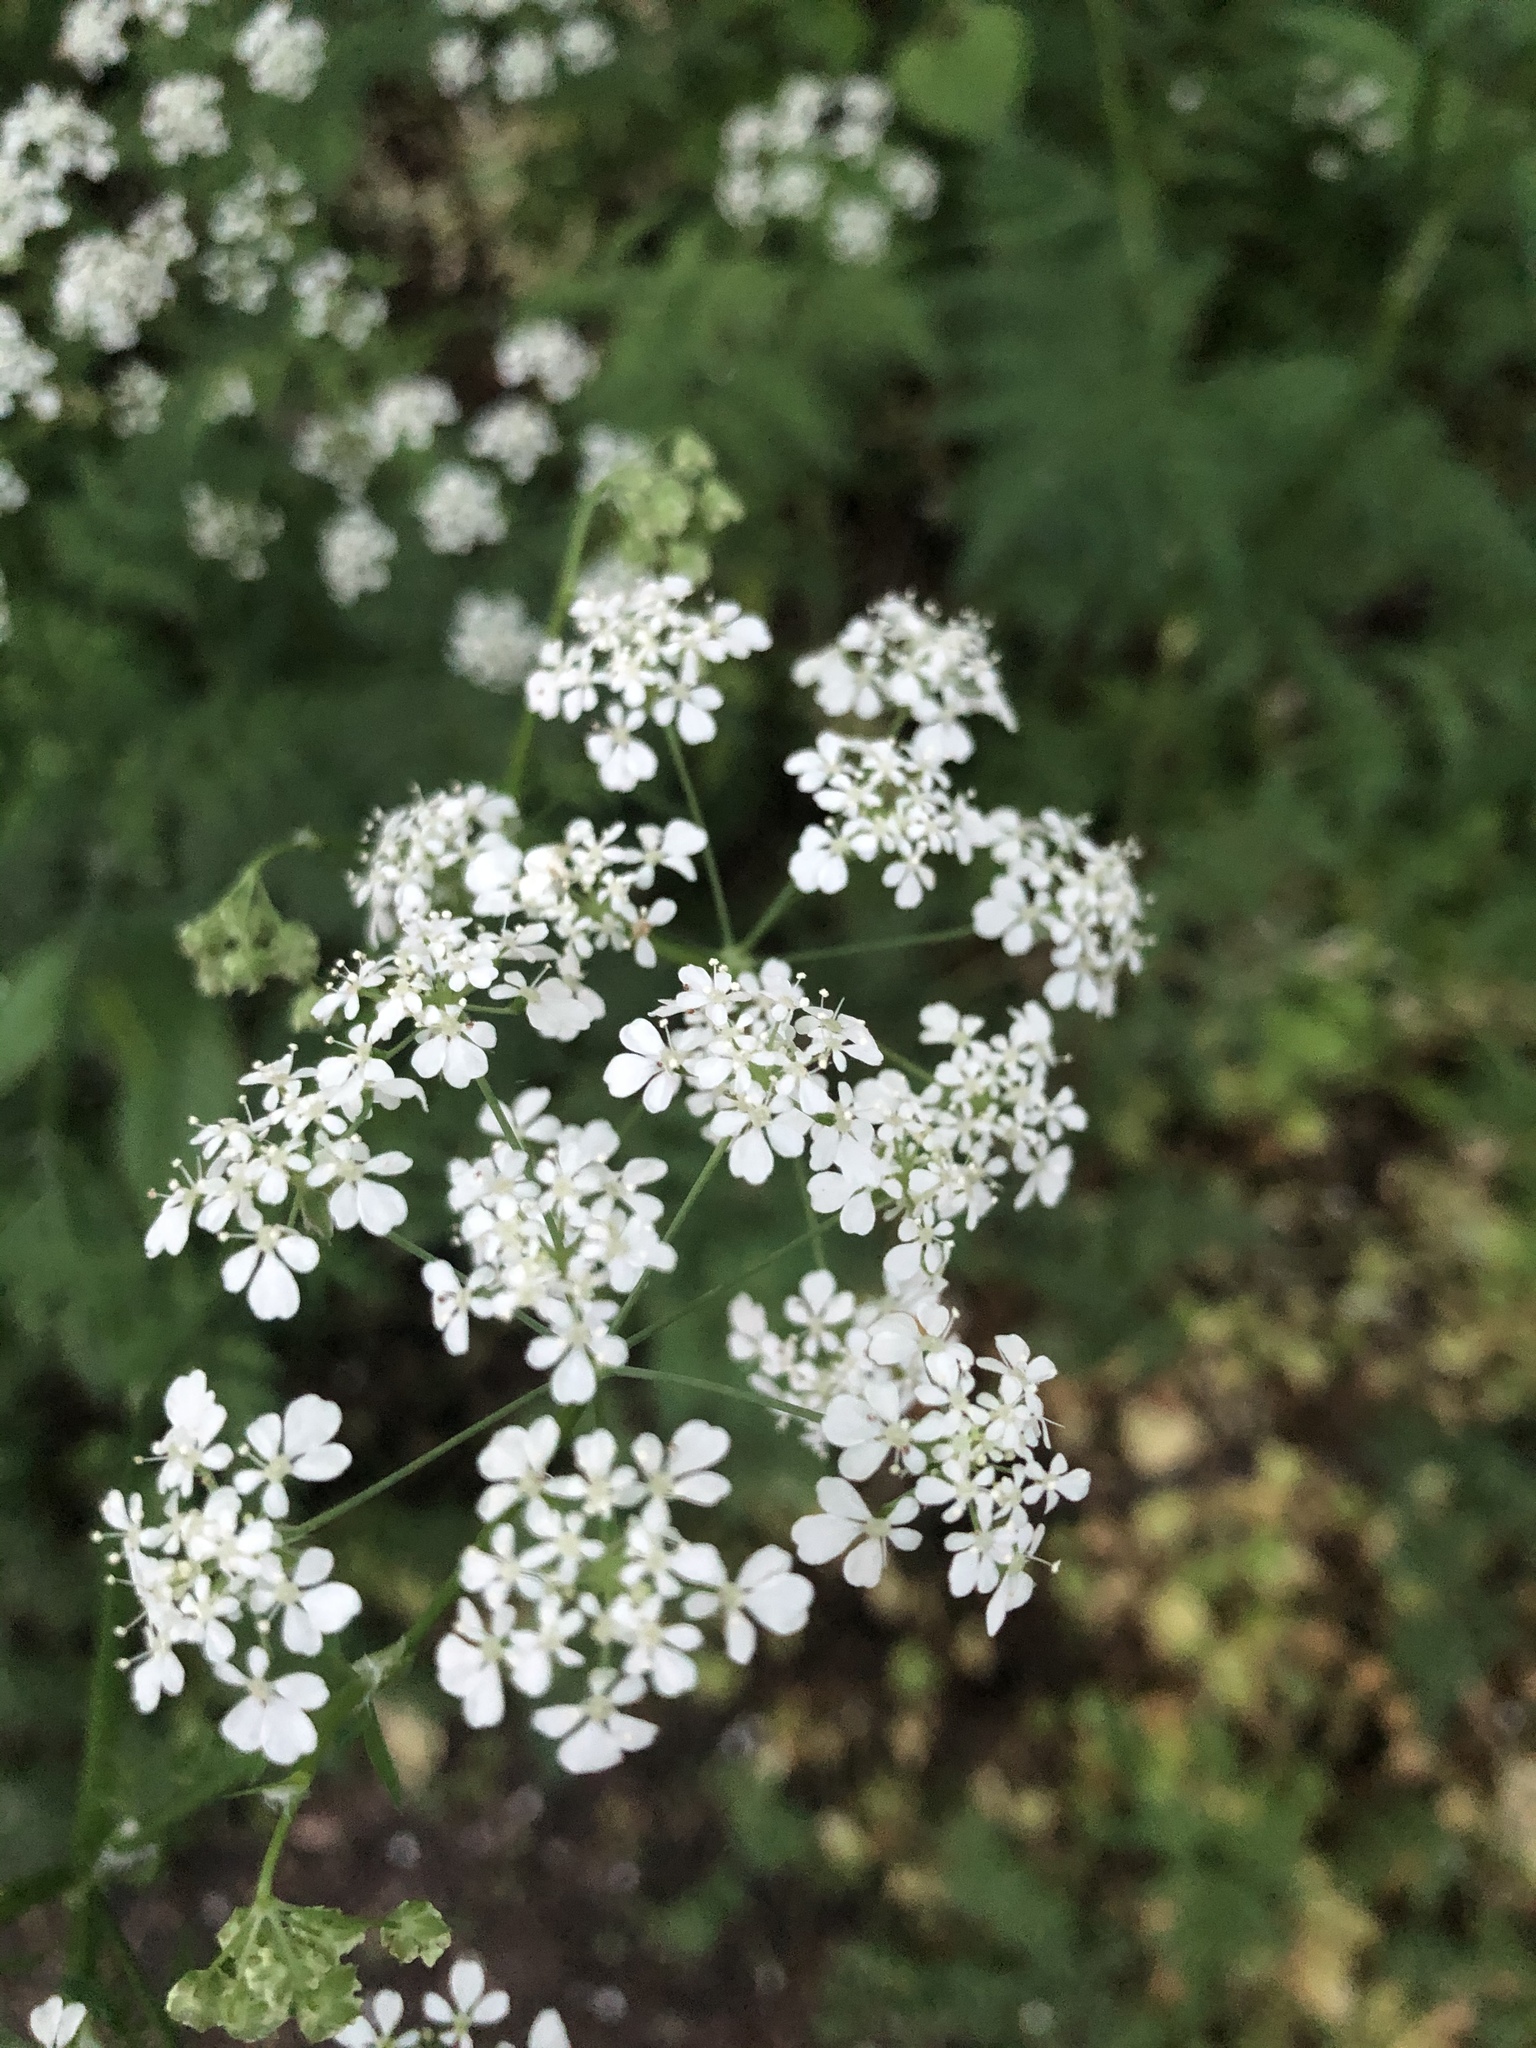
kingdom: Plantae
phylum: Tracheophyta
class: Magnoliopsida
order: Apiales
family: Apiaceae
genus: Anthriscus
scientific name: Anthriscus sylvestris
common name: Cow parsley
